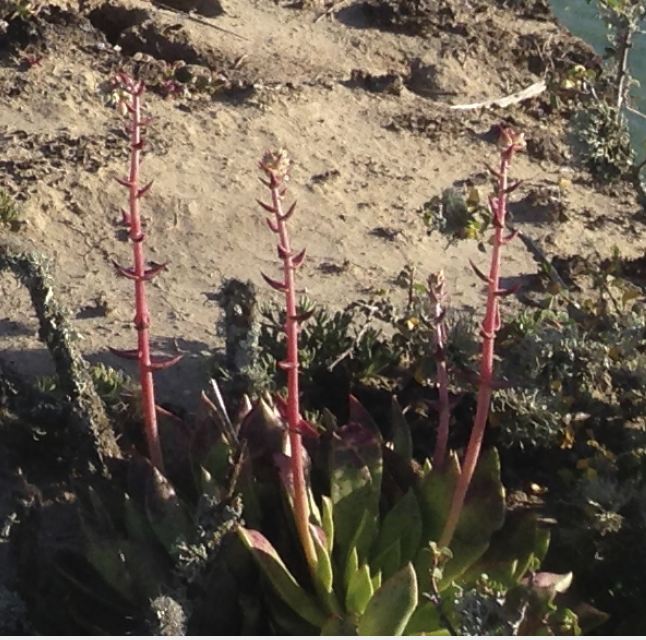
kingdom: Plantae
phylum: Tracheophyta
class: Magnoliopsida
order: Saxifragales
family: Crassulaceae
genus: Dudleya
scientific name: Dudleya ingens
